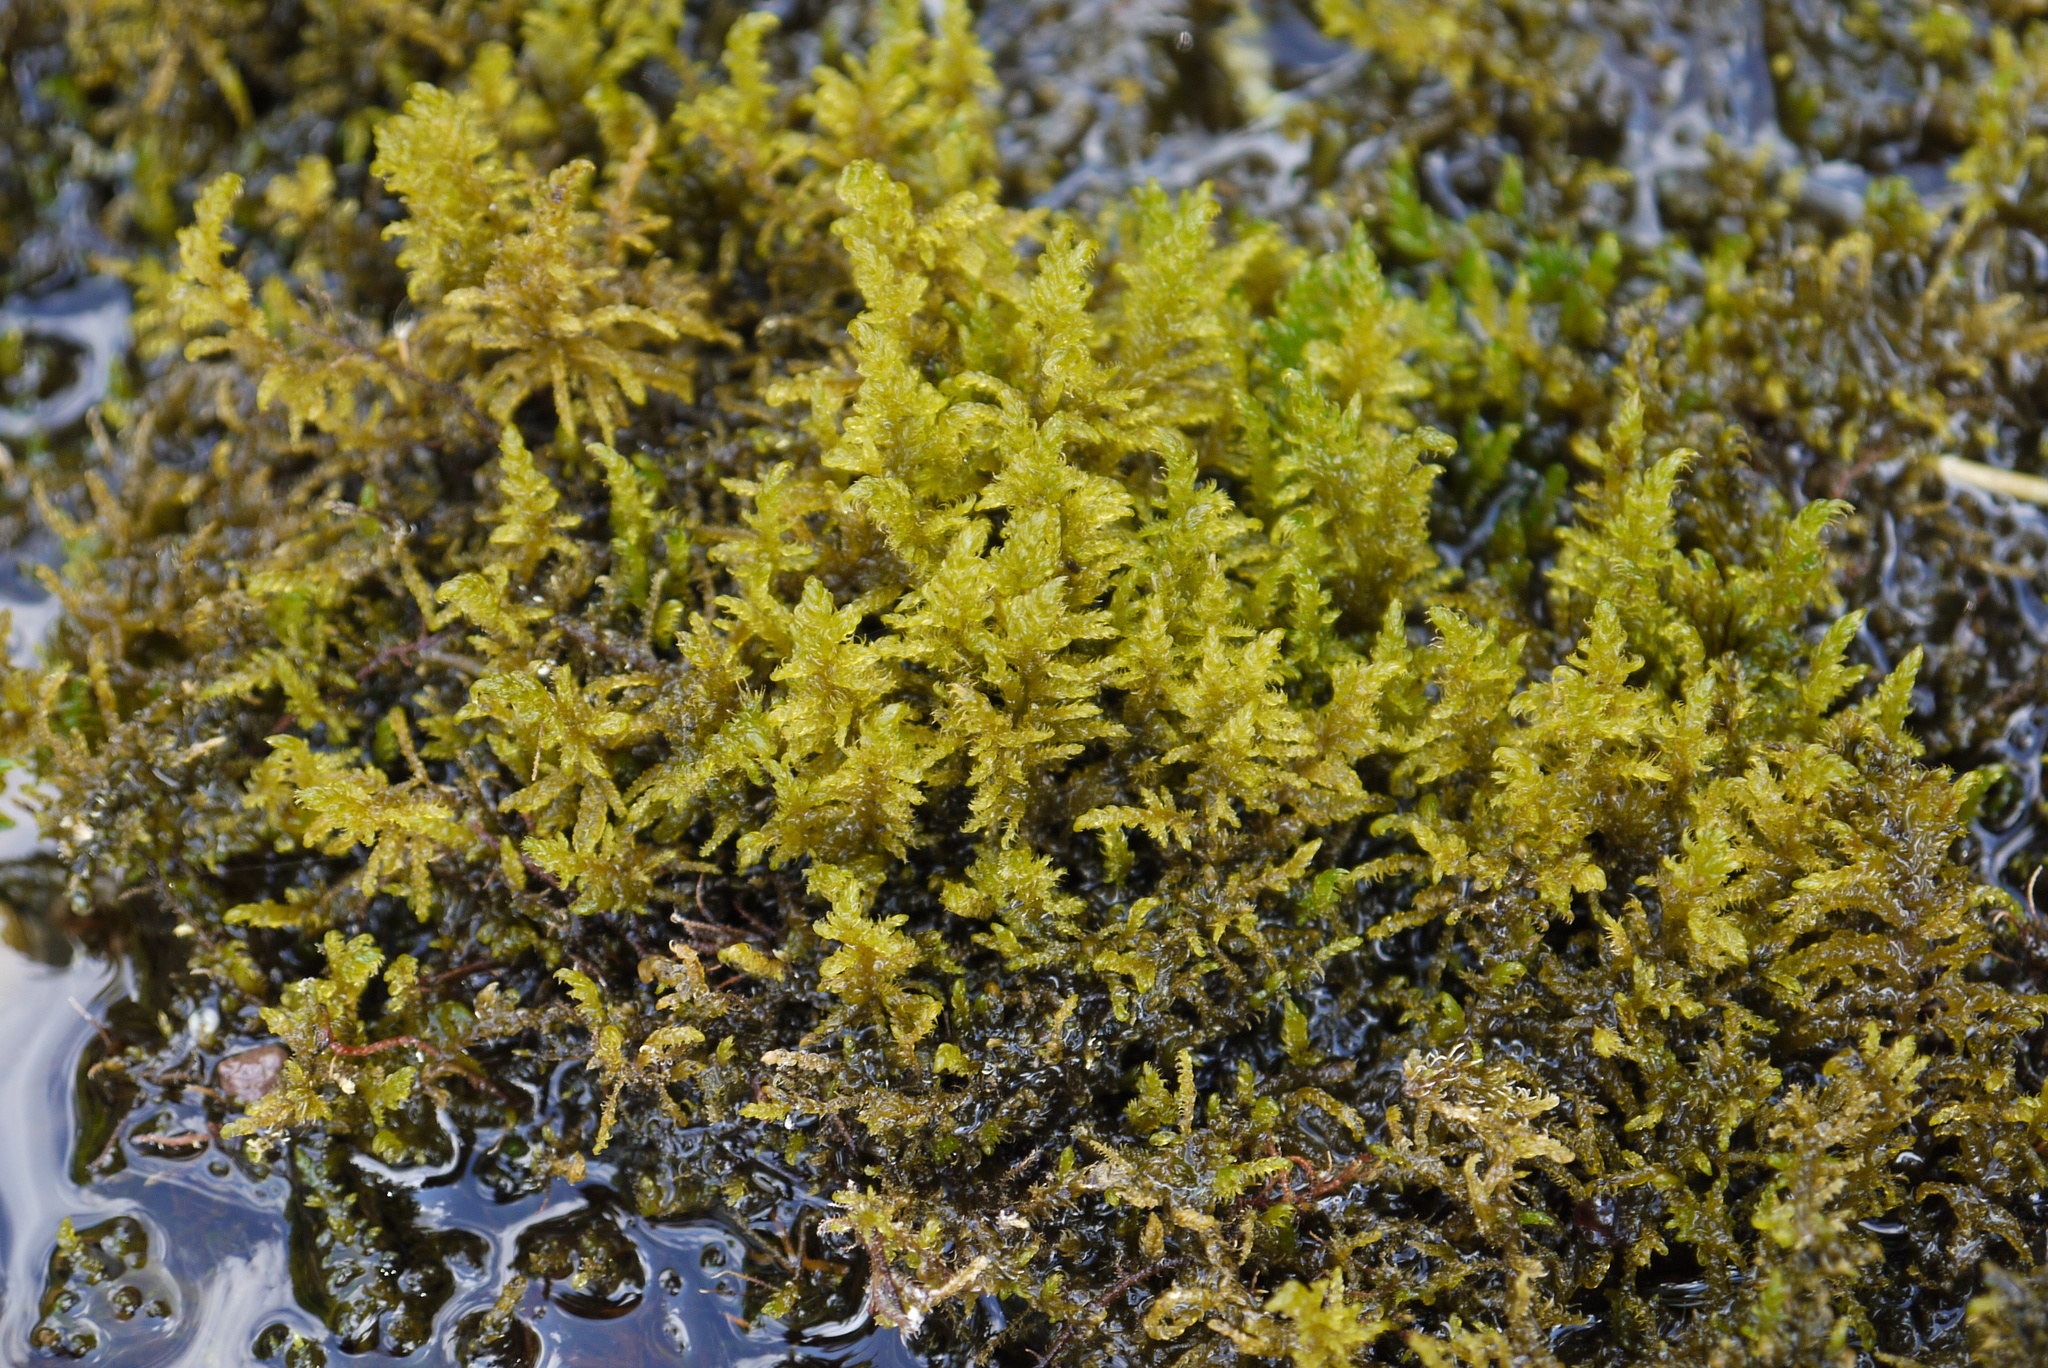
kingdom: Plantae
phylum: Bryophyta
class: Bryopsida
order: Hypnales
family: Amblystegiaceae
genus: Palustriella
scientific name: Palustriella commutata
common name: Curled hook-moss
